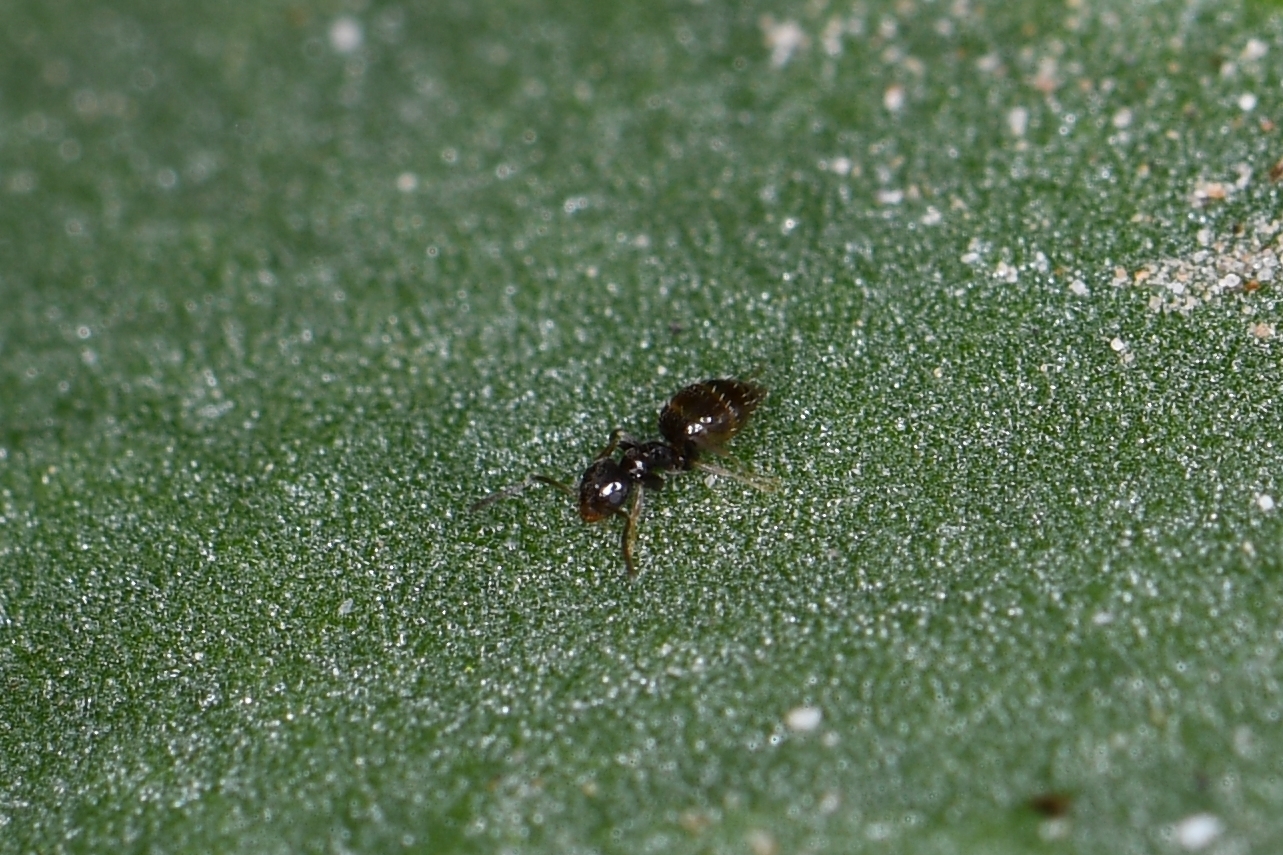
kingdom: Animalia
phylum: Arthropoda
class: Insecta
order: Hymenoptera
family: Formicidae
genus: Brachymyrmex
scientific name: Brachymyrmex patagonicus
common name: Dark rover ant
